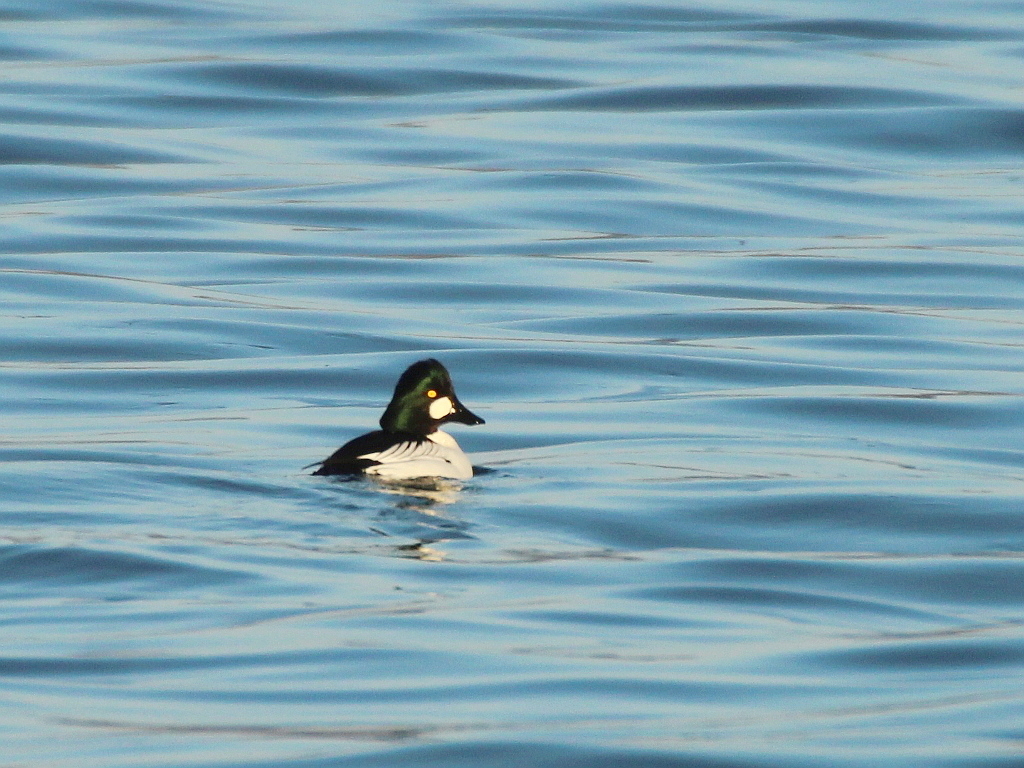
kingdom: Animalia
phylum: Chordata
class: Aves
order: Anseriformes
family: Anatidae
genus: Bucephala
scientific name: Bucephala clangula
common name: Common goldeneye
